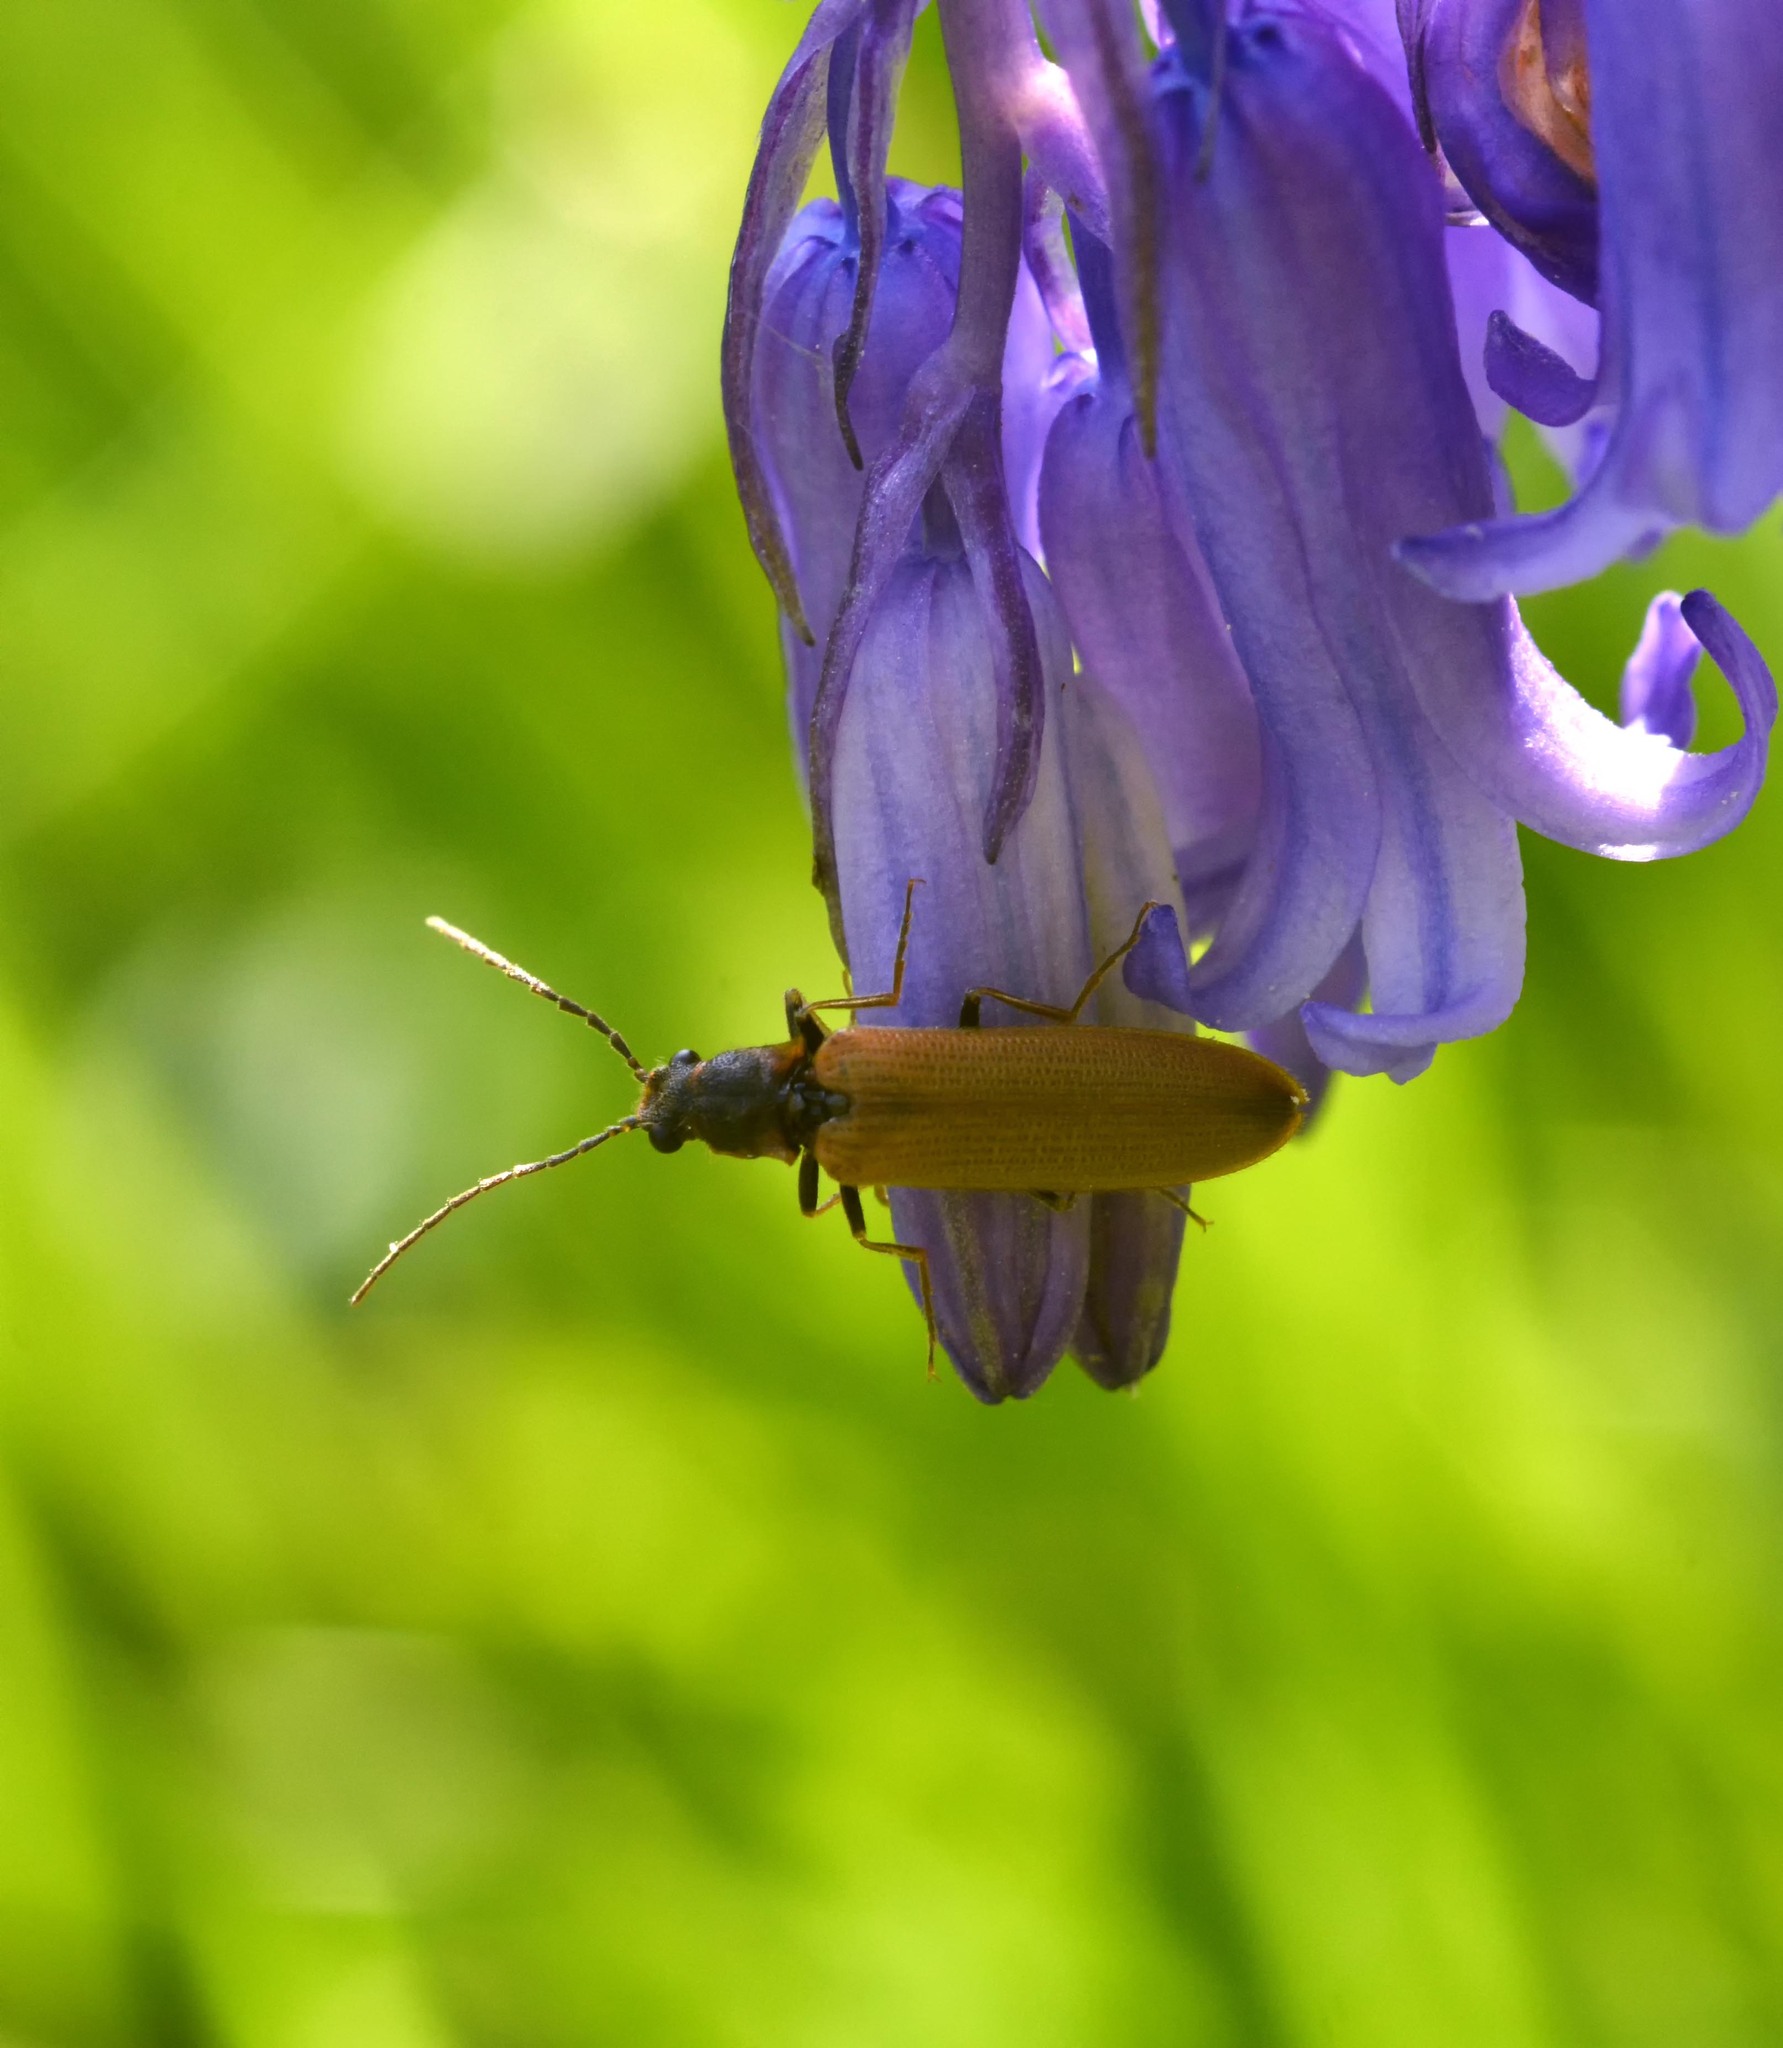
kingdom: Animalia
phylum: Arthropoda
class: Insecta
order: Coleoptera
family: Elateridae
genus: Denticollis
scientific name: Denticollis linearis
